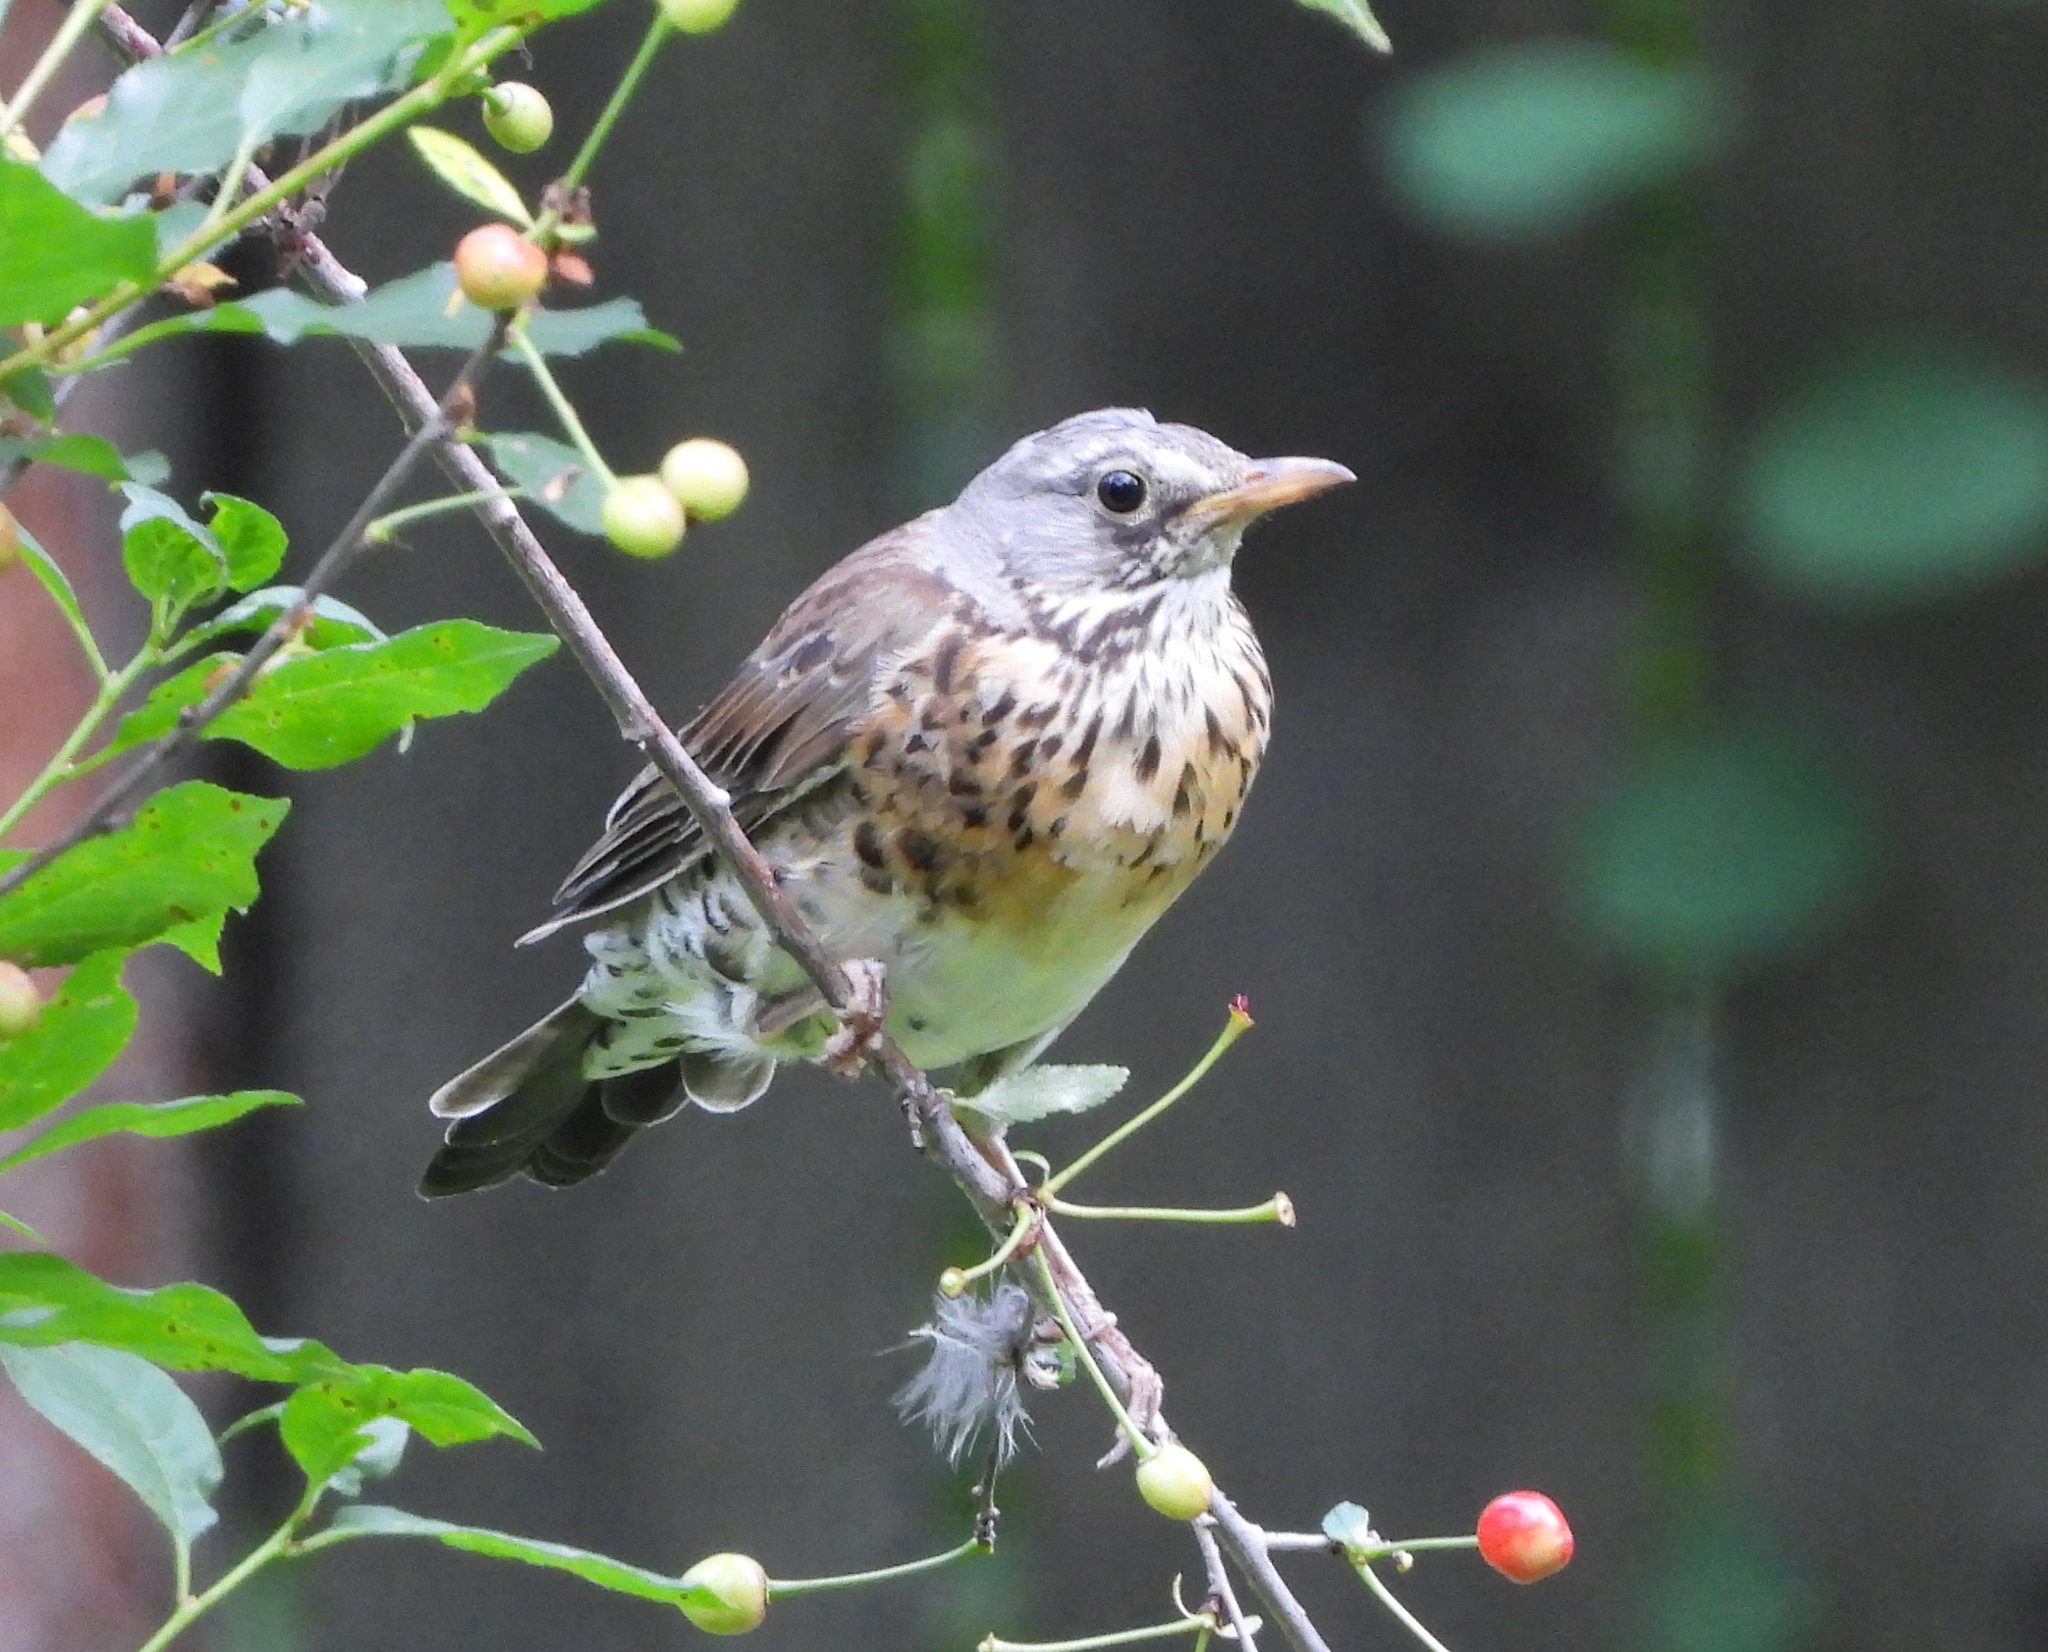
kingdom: Animalia
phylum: Chordata
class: Aves
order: Passeriformes
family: Turdidae
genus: Turdus
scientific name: Turdus pilaris
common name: Fieldfare
